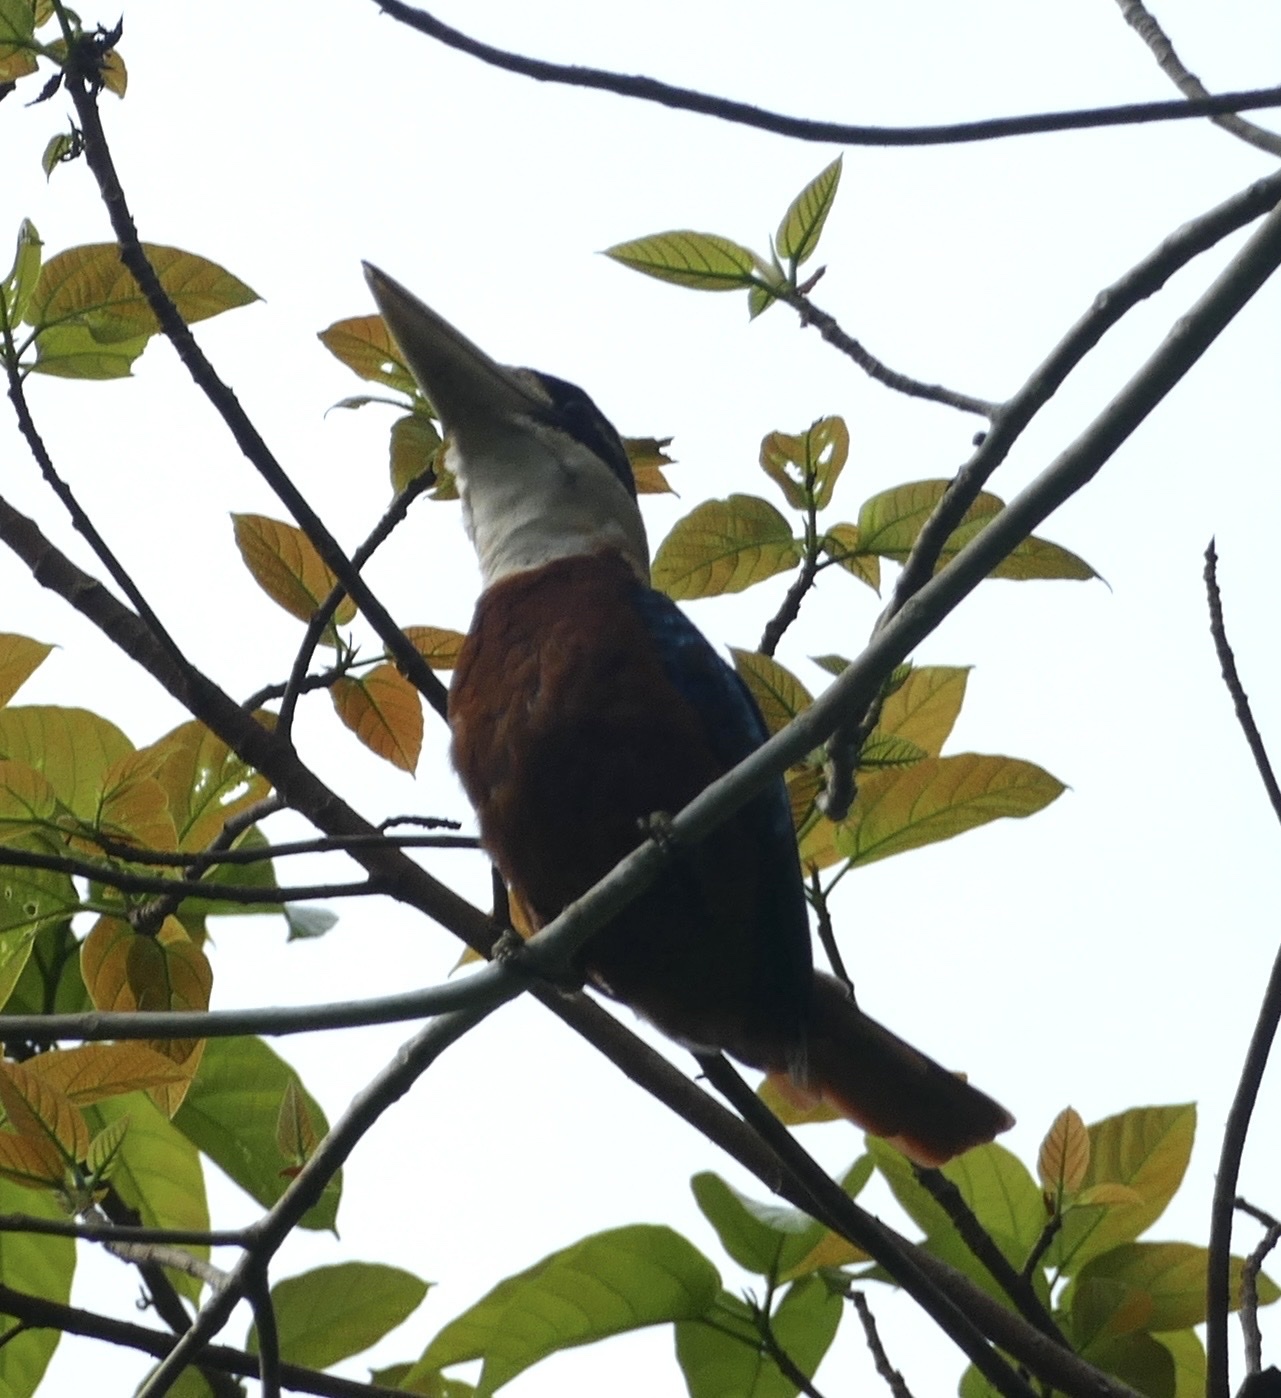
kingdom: Animalia
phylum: Chordata
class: Aves
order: Coraciiformes
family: Alcedinidae
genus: Dacelo
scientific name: Dacelo gaudichaud
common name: Rufous-bellied kookaburra
